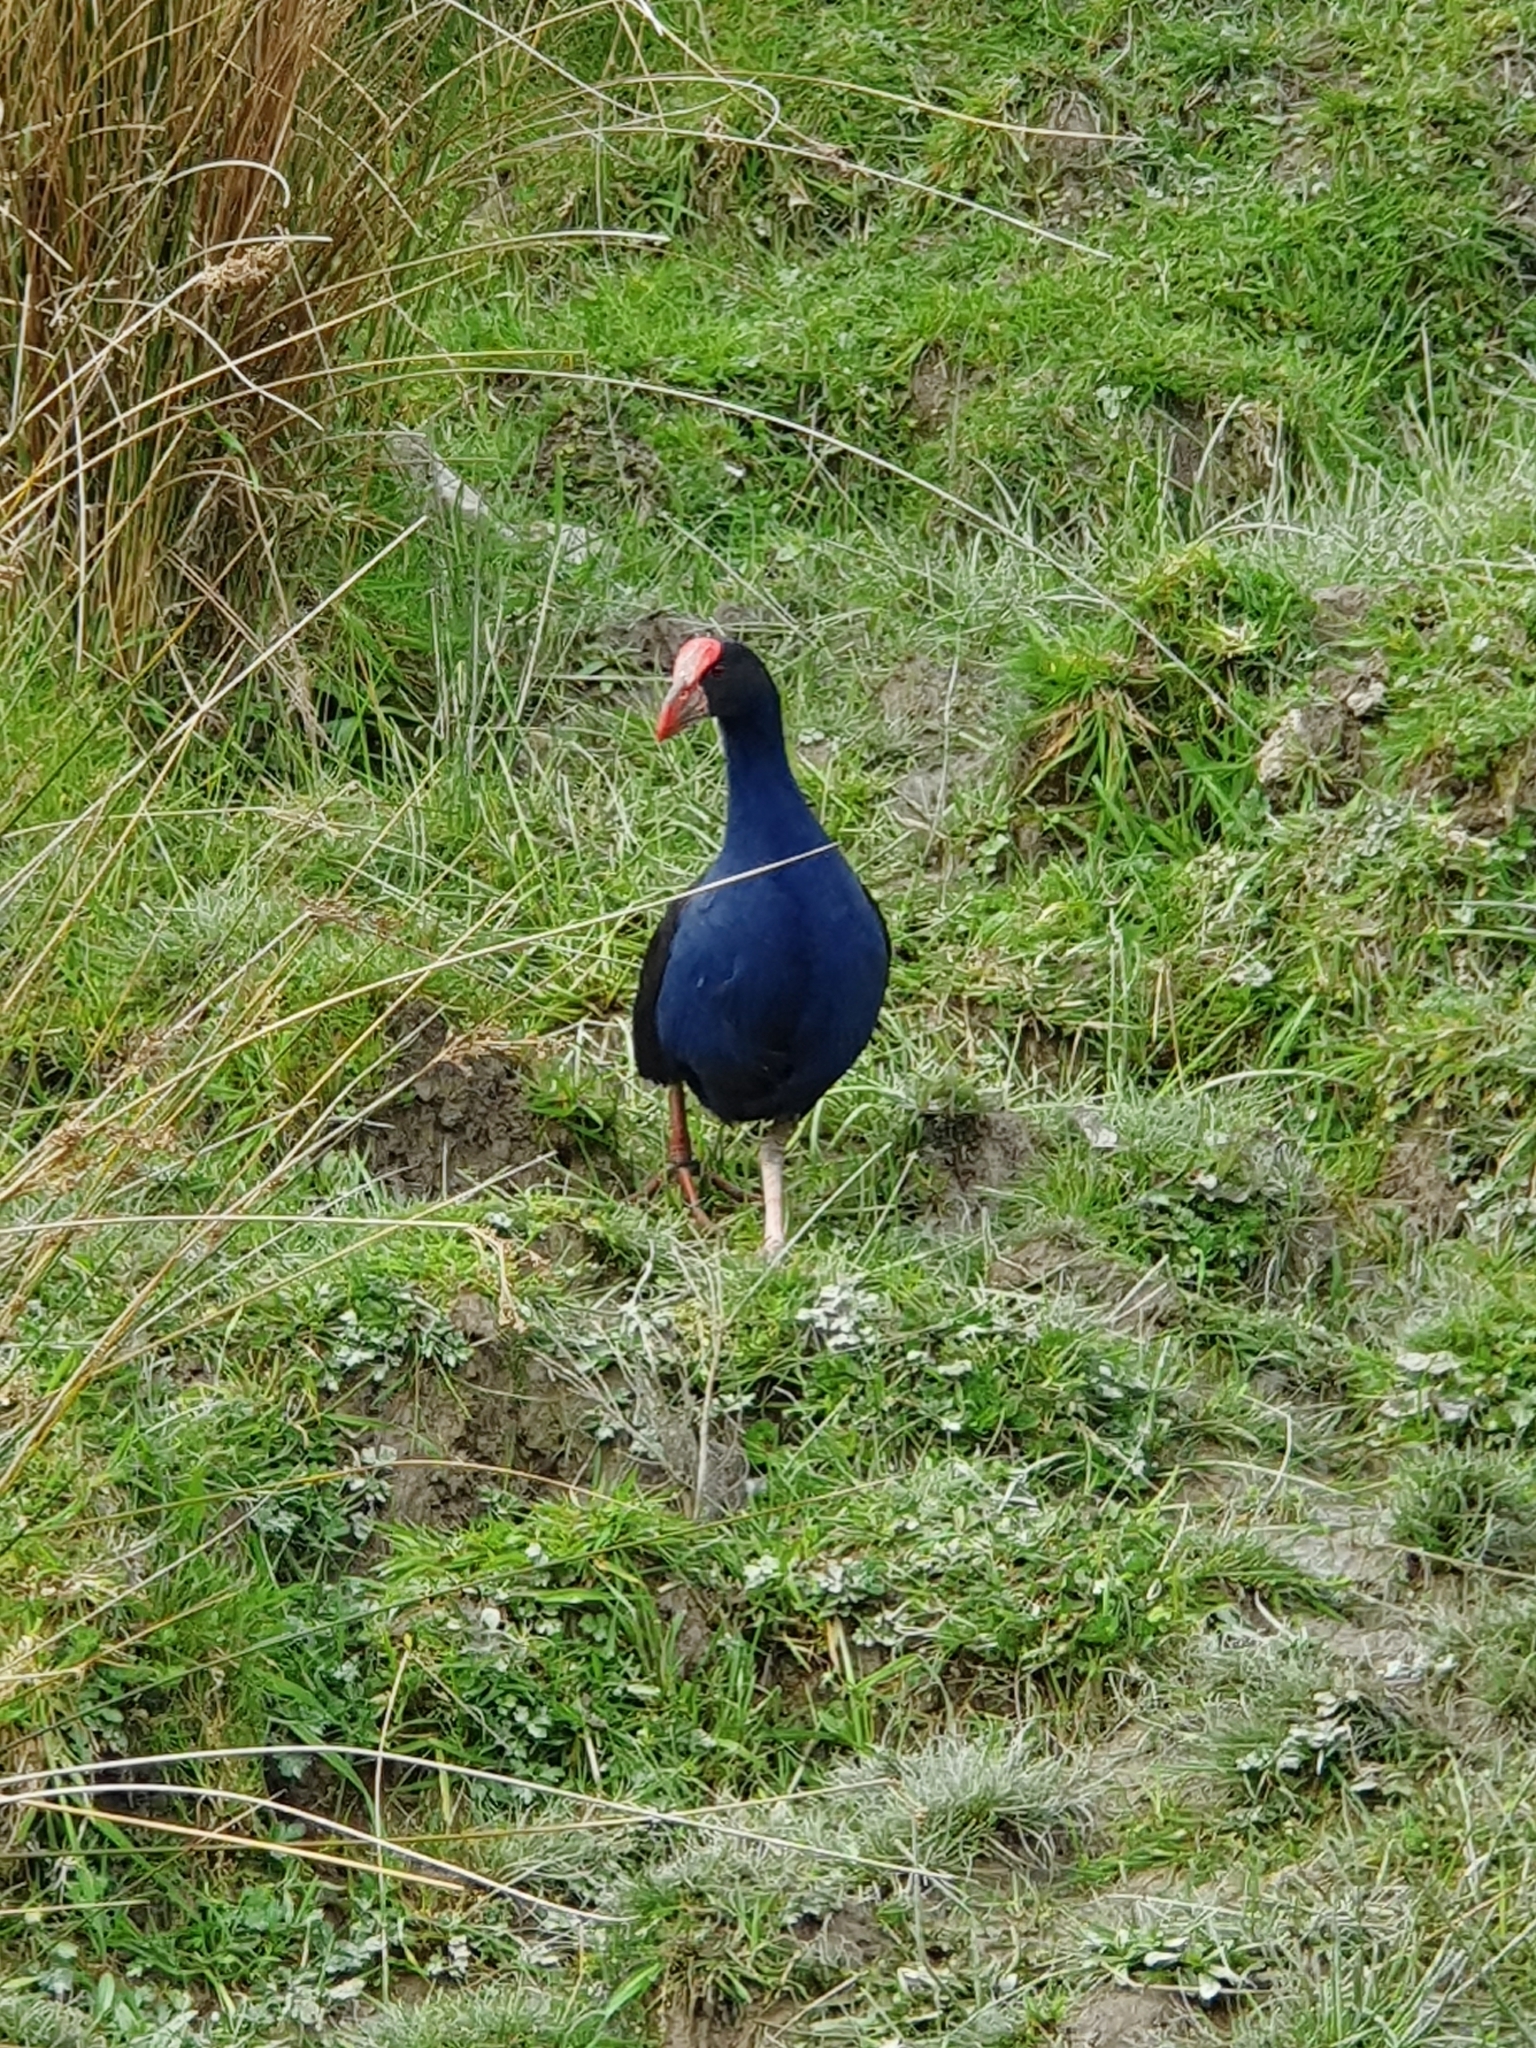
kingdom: Animalia
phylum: Chordata
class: Aves
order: Gruiformes
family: Rallidae
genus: Porphyrio
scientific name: Porphyrio melanotus
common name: Australasian swamphen
